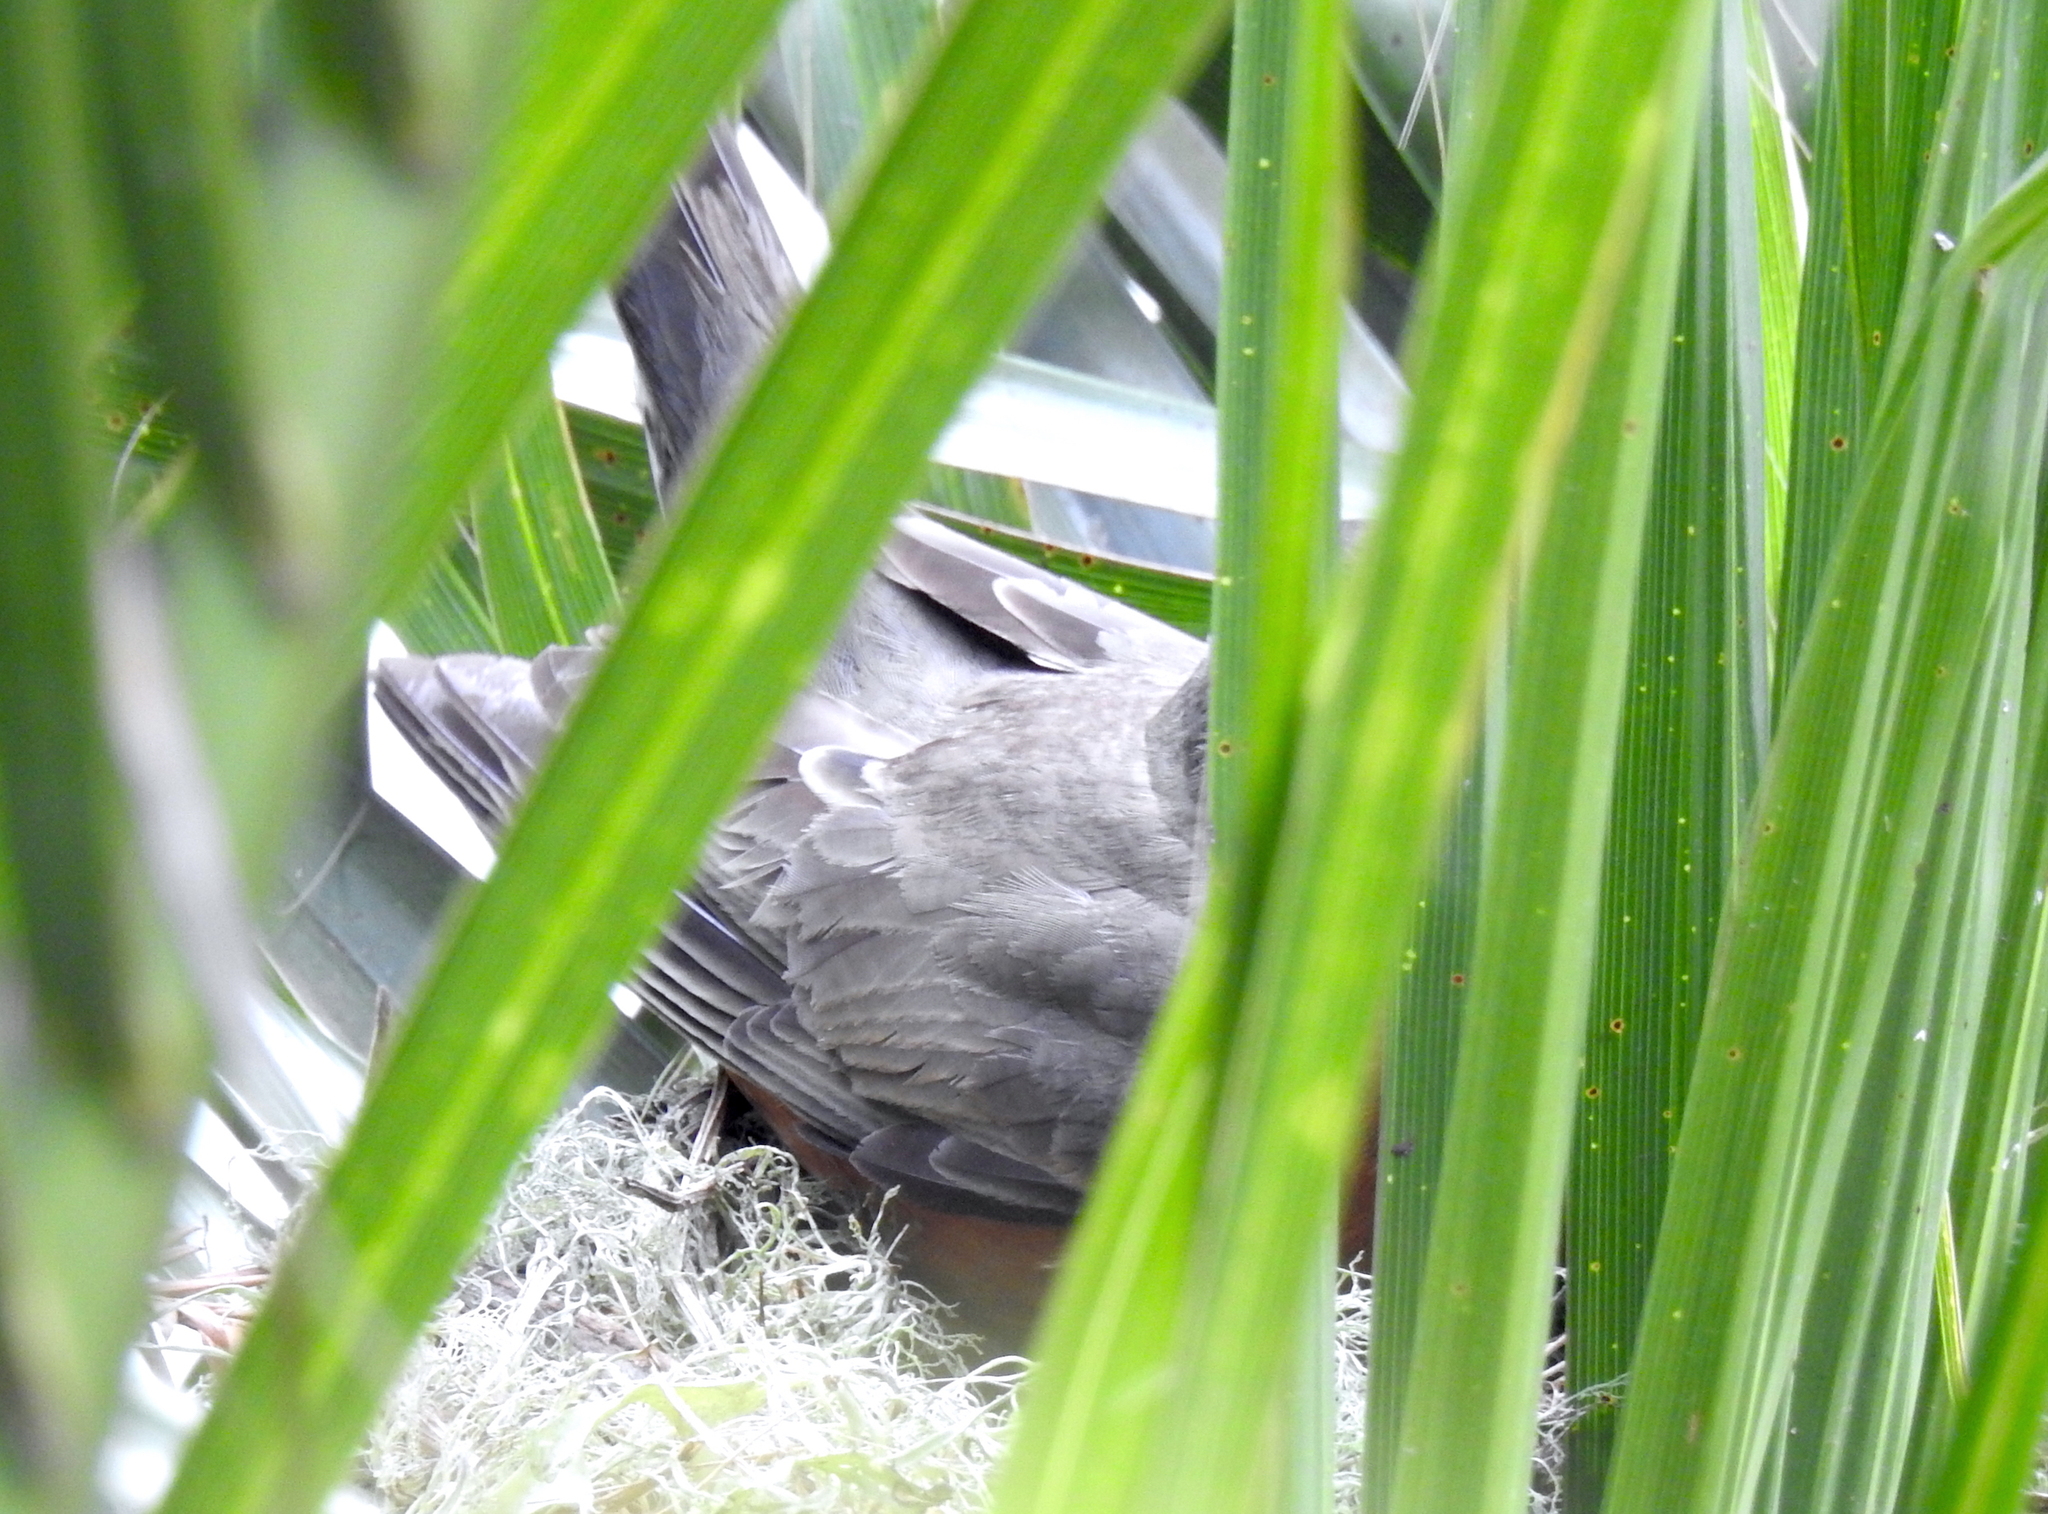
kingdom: Animalia
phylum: Chordata
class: Aves
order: Passeriformes
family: Turdidae
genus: Turdus
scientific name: Turdus migratorius
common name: American robin
